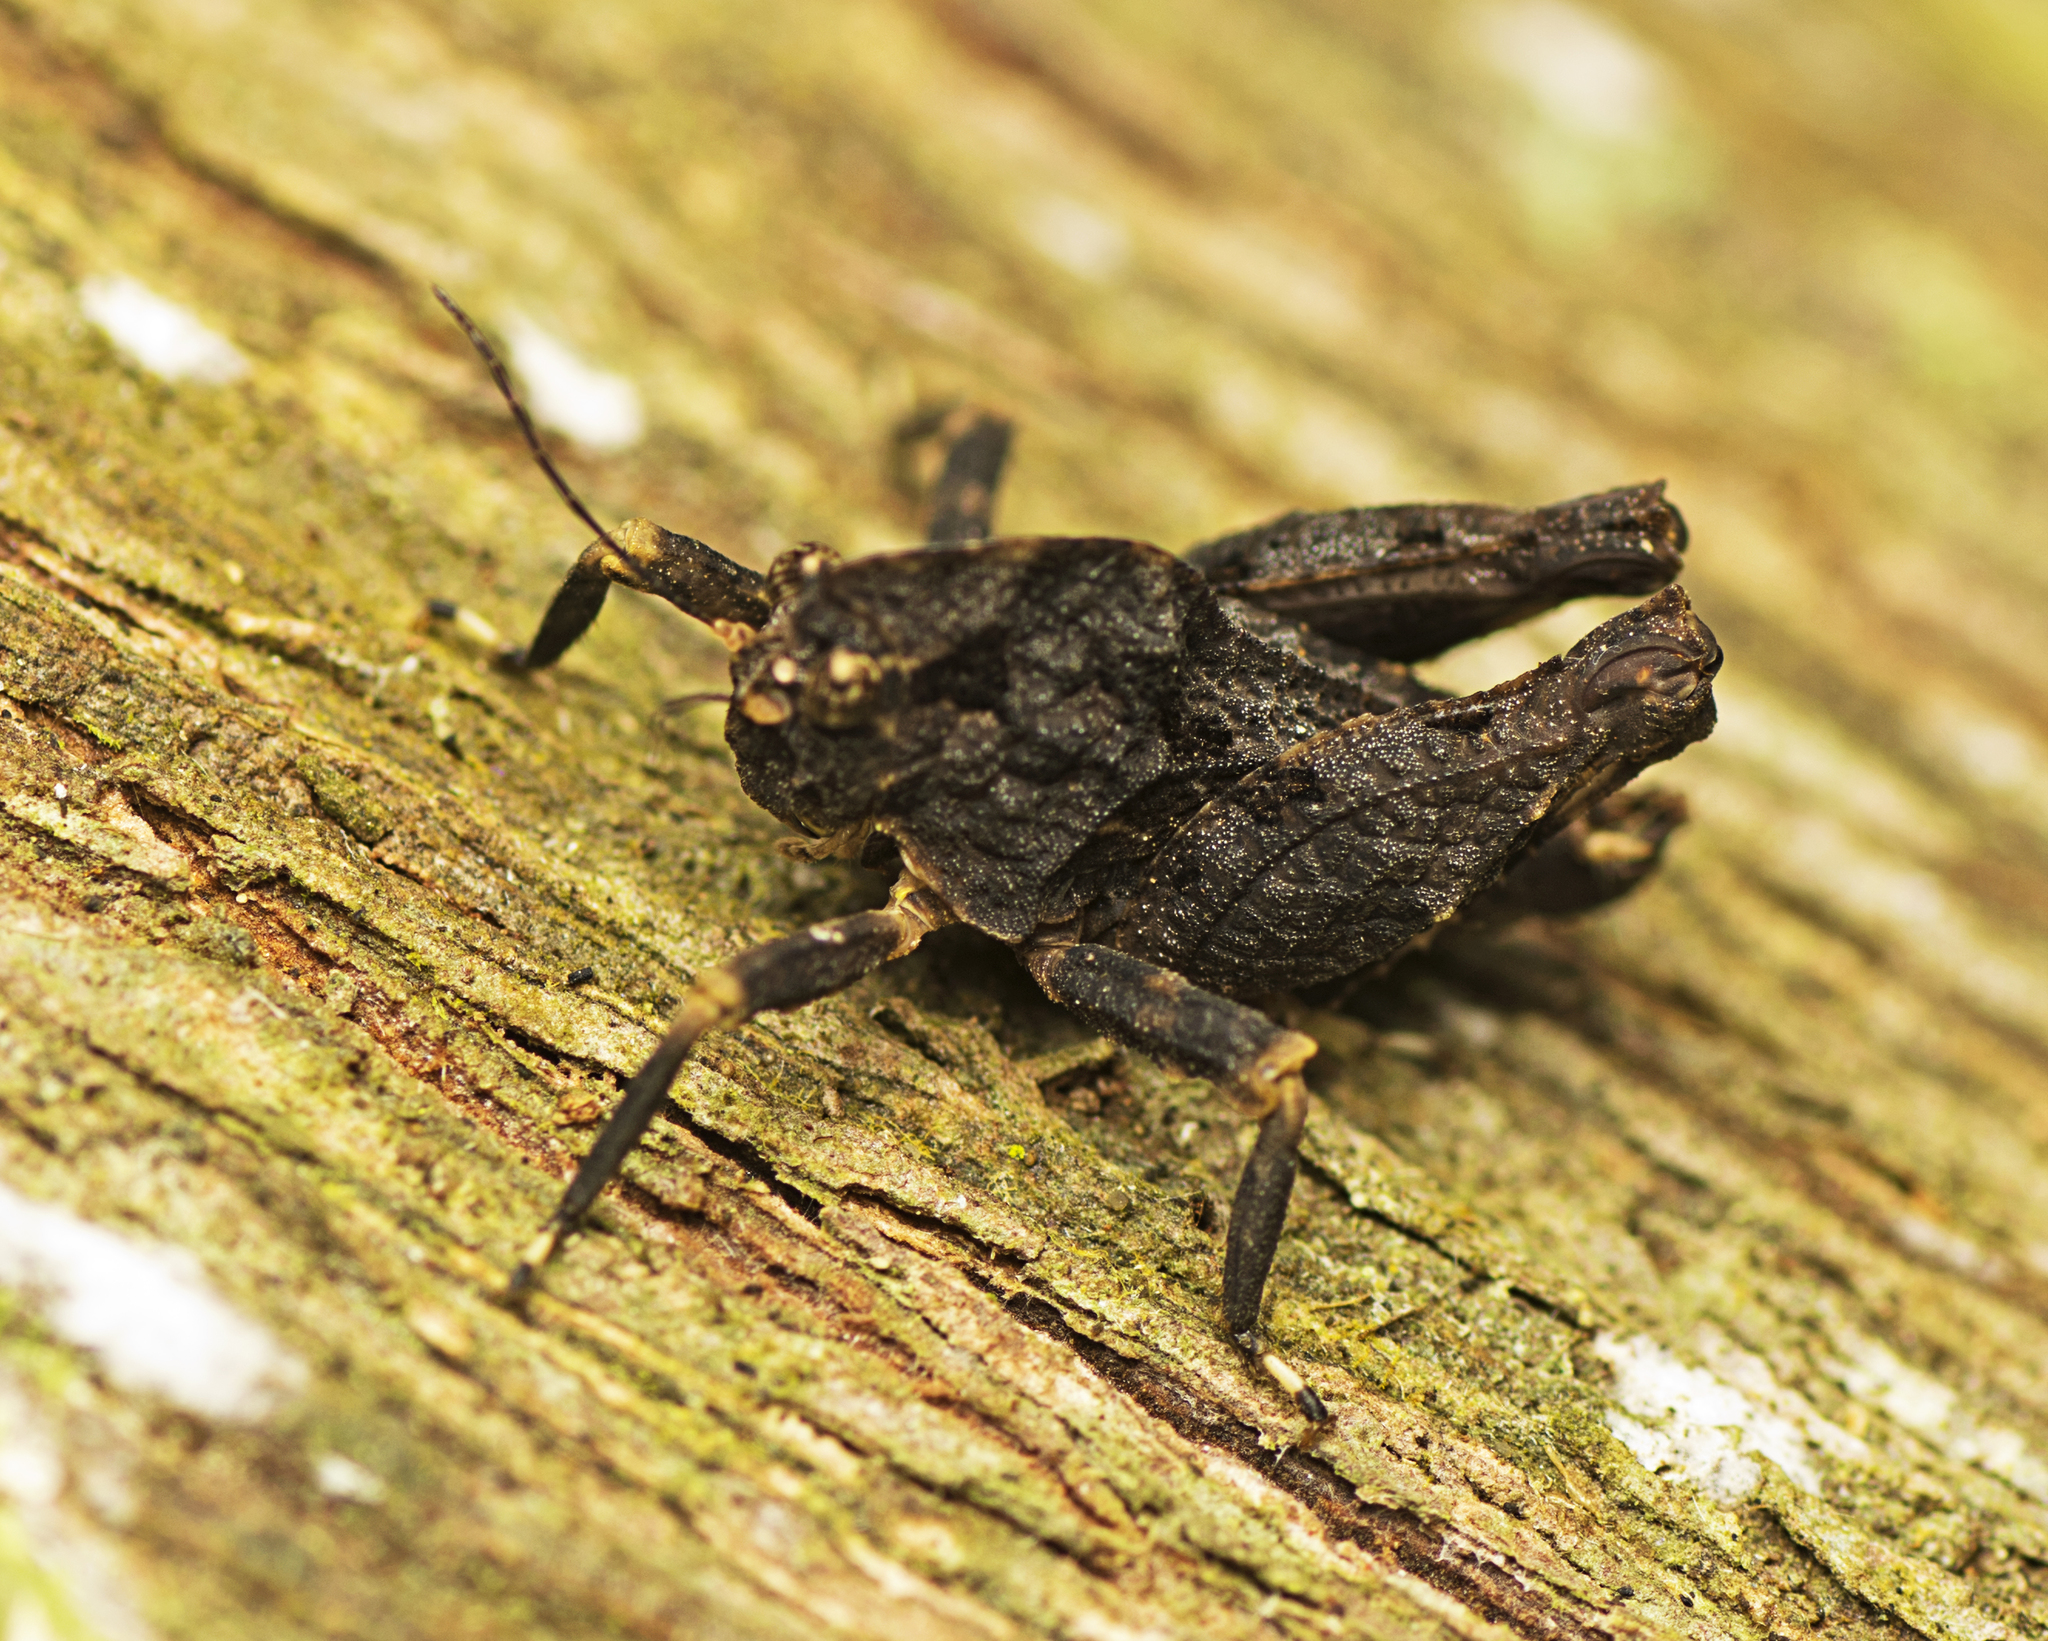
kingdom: Animalia
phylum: Arthropoda
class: Insecta
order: Orthoptera
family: Tetrigidae
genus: Paraselina
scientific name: Paraselina brunneri
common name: Angled australian barkhopper
